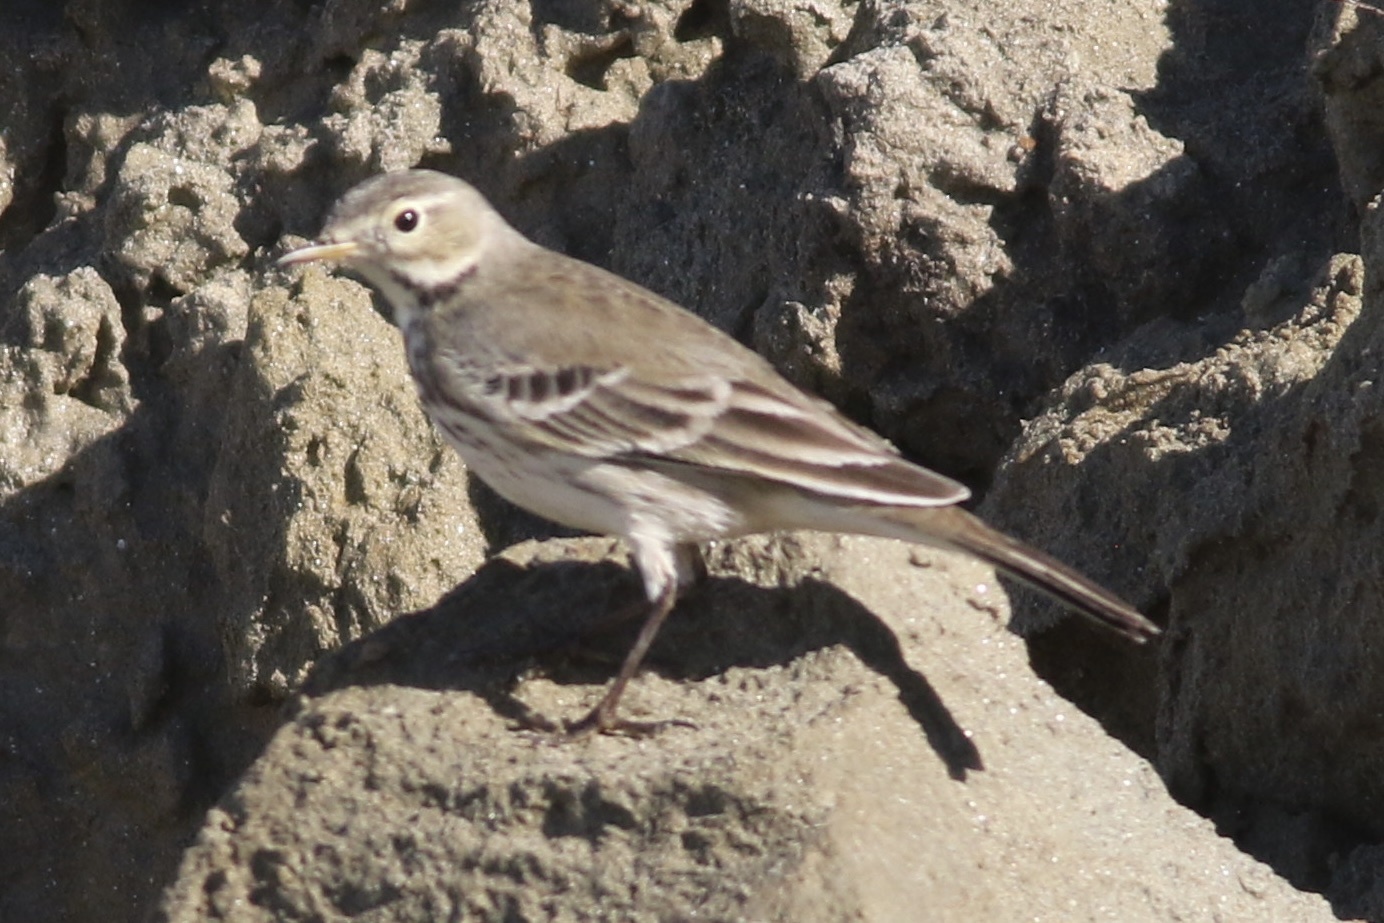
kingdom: Animalia
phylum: Chordata
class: Aves
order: Passeriformes
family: Motacillidae
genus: Anthus
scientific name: Anthus rubescens
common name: Buff-bellied pipit
